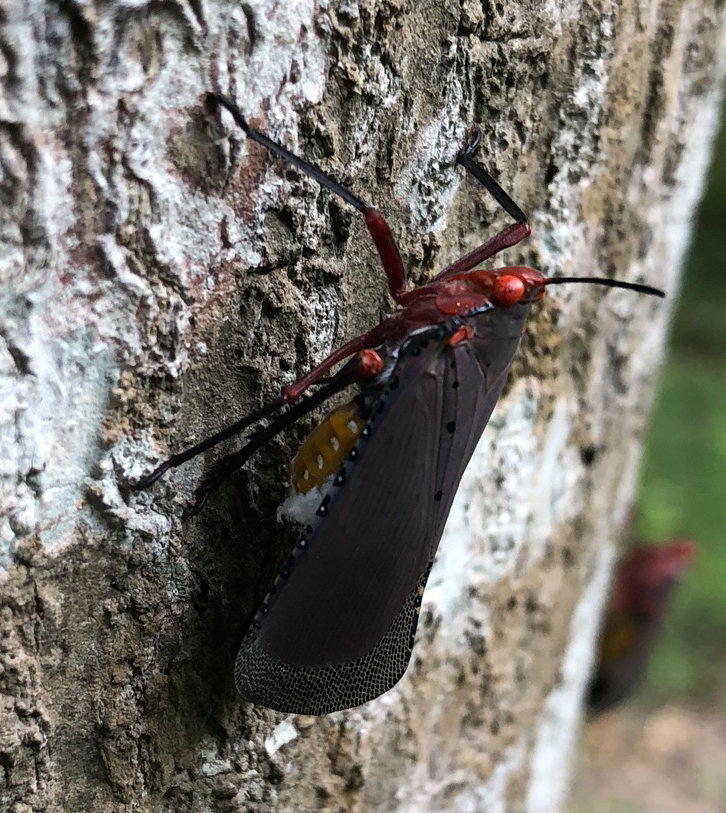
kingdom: Animalia
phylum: Arthropoda
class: Insecta
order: Hemiptera
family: Fulgoridae
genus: Kalidasa
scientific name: Kalidasa nigromaculata
